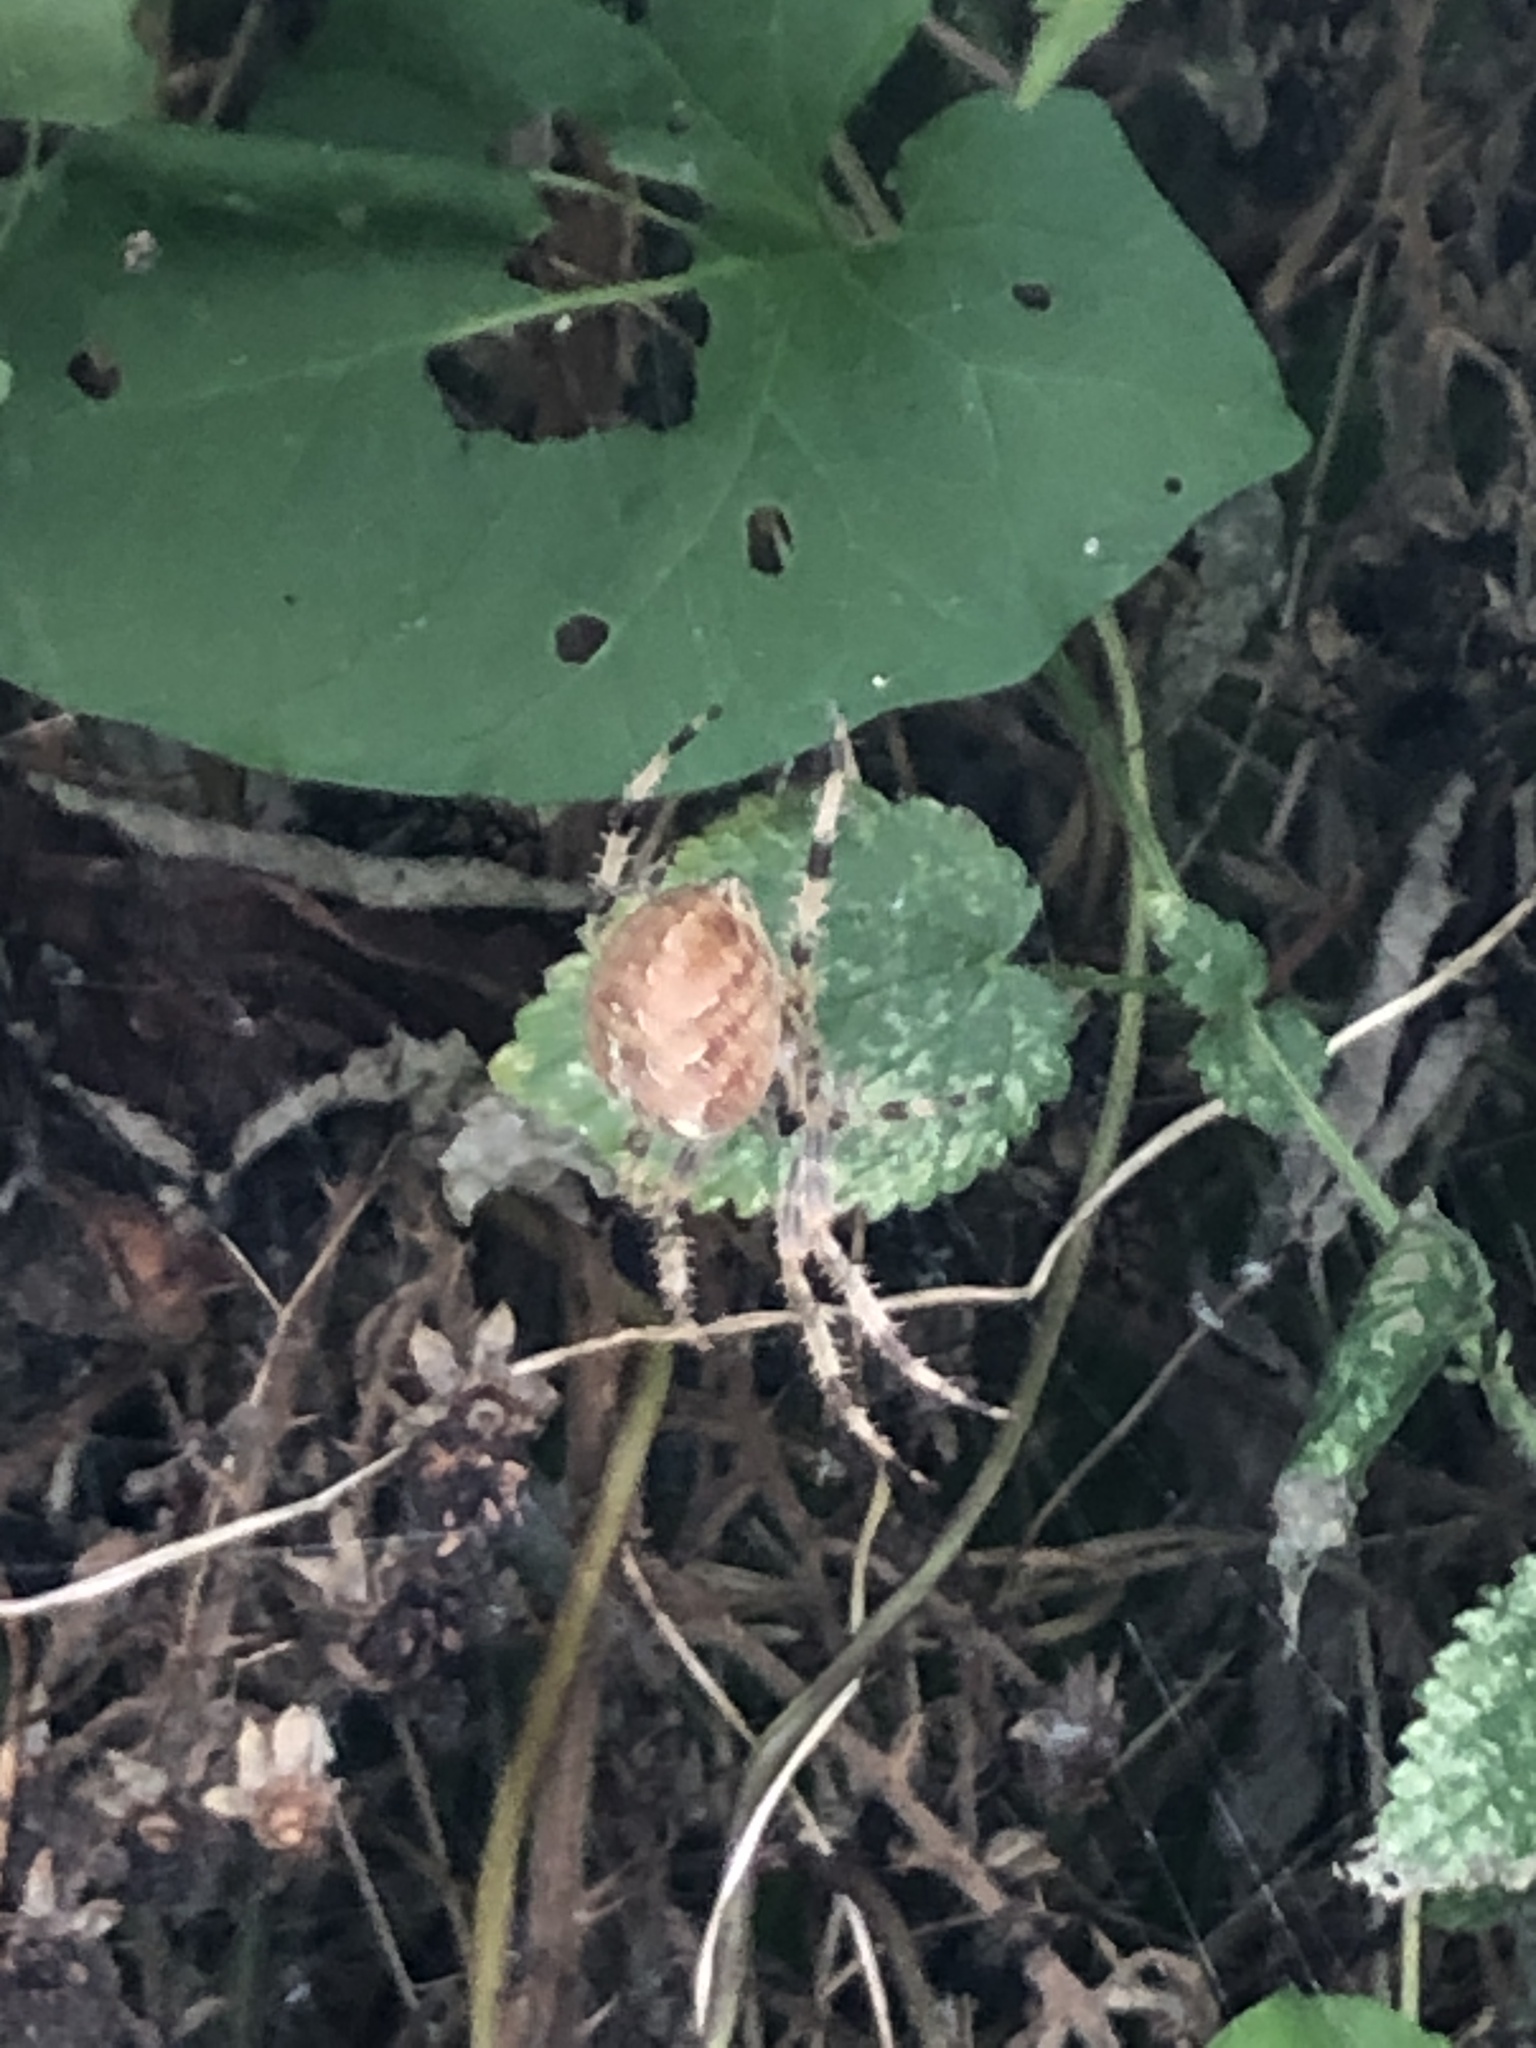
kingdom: Animalia
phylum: Arthropoda
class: Arachnida
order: Araneae
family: Araneidae
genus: Araneus
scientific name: Araneus diadematus
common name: Cross orbweaver
